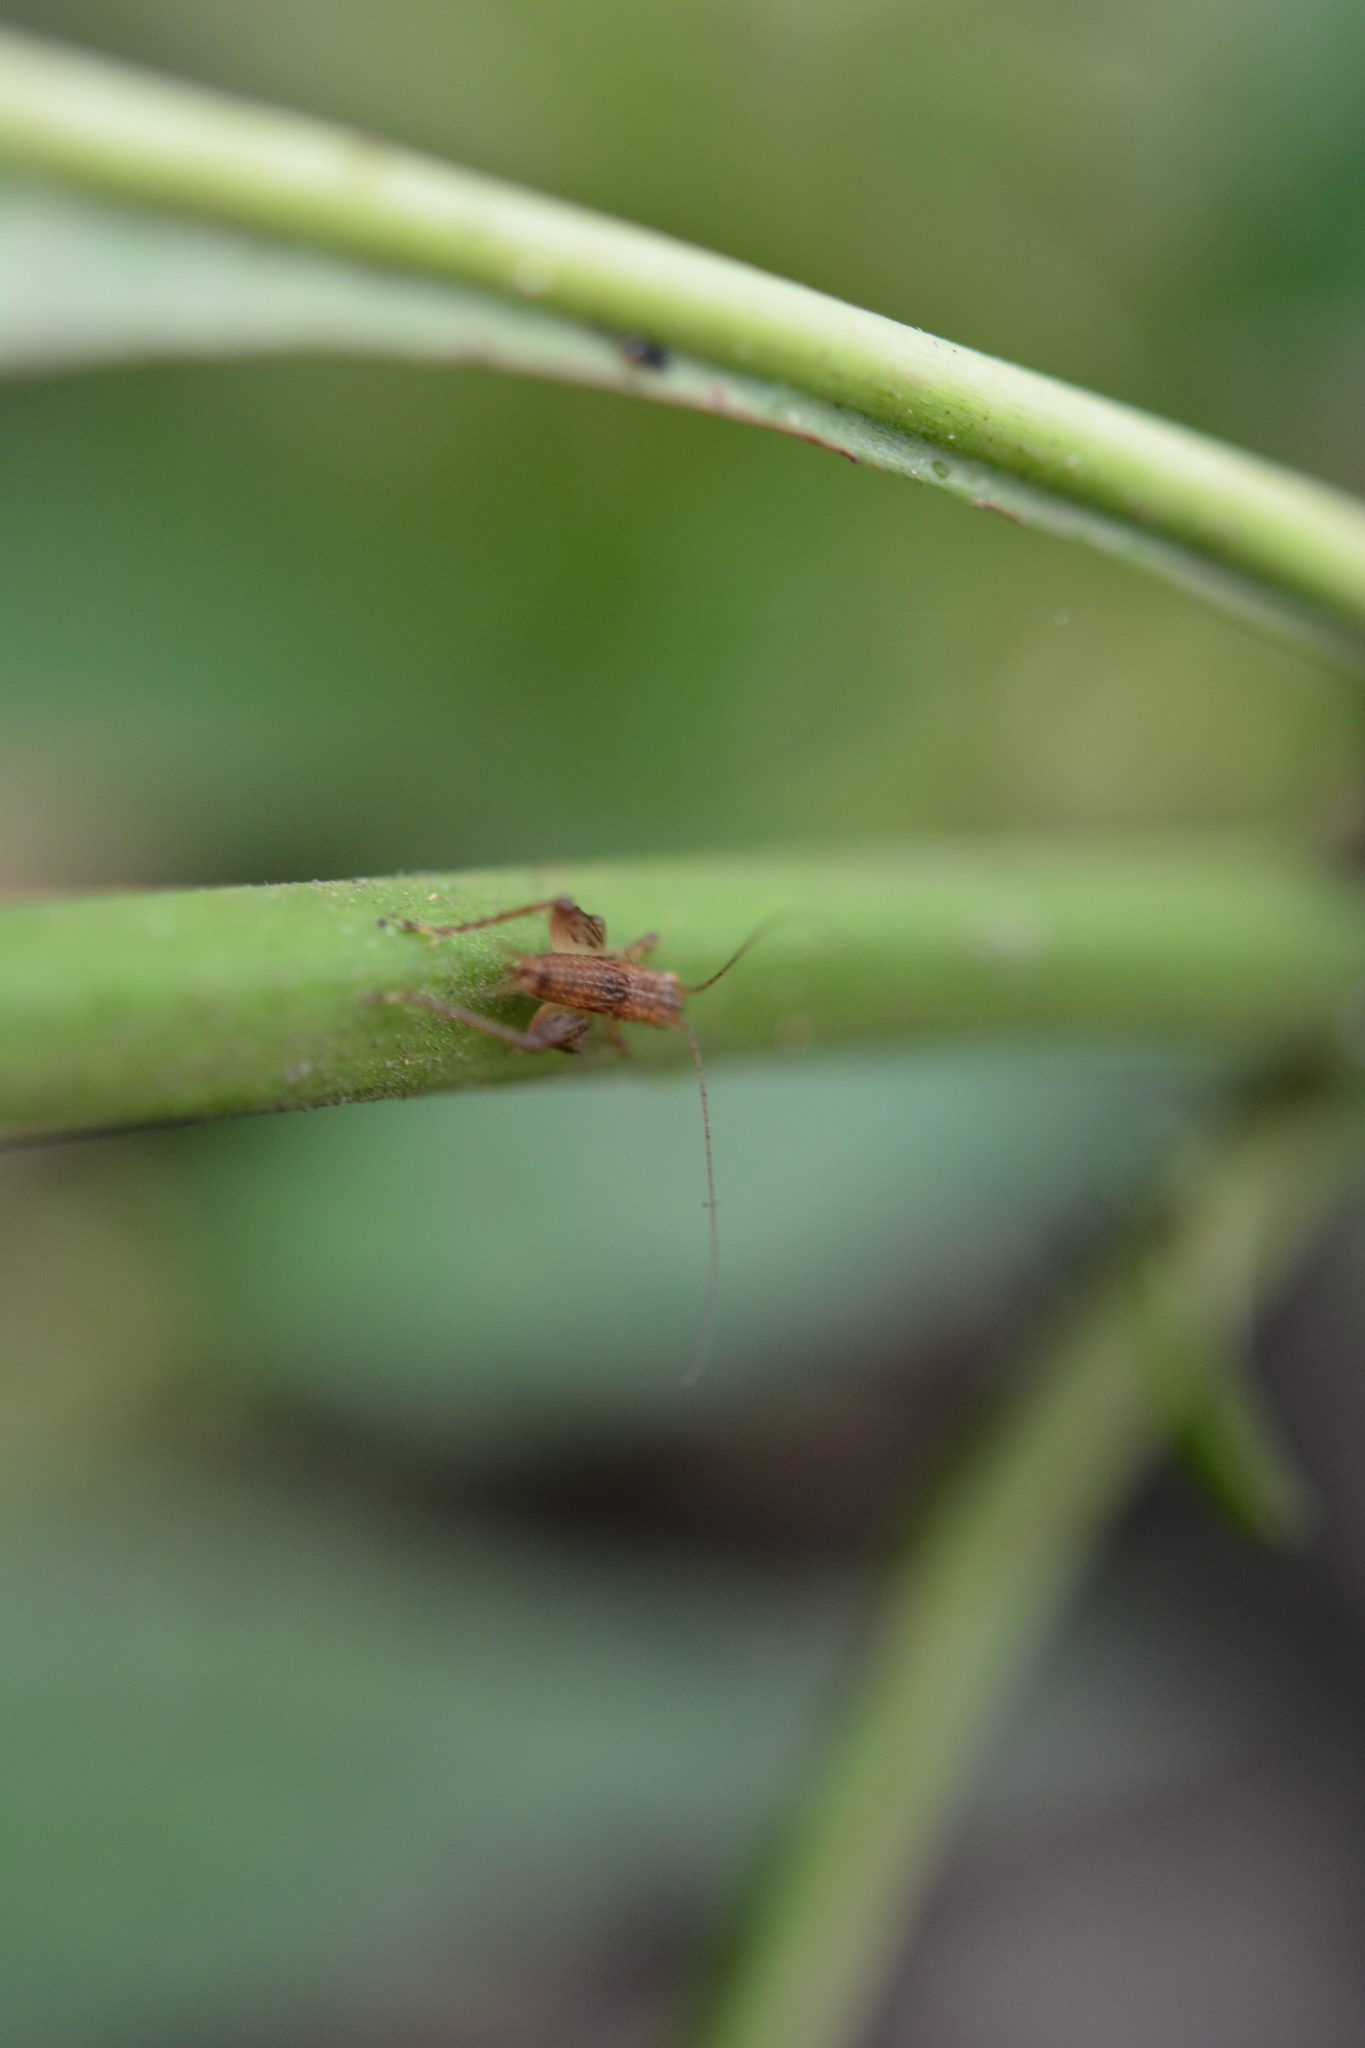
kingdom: Animalia
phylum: Arthropoda
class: Insecta
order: Orthoptera
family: Trigonidiidae
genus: Falcicula
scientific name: Falcicula hebardi
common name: Hebard's bush cricket
